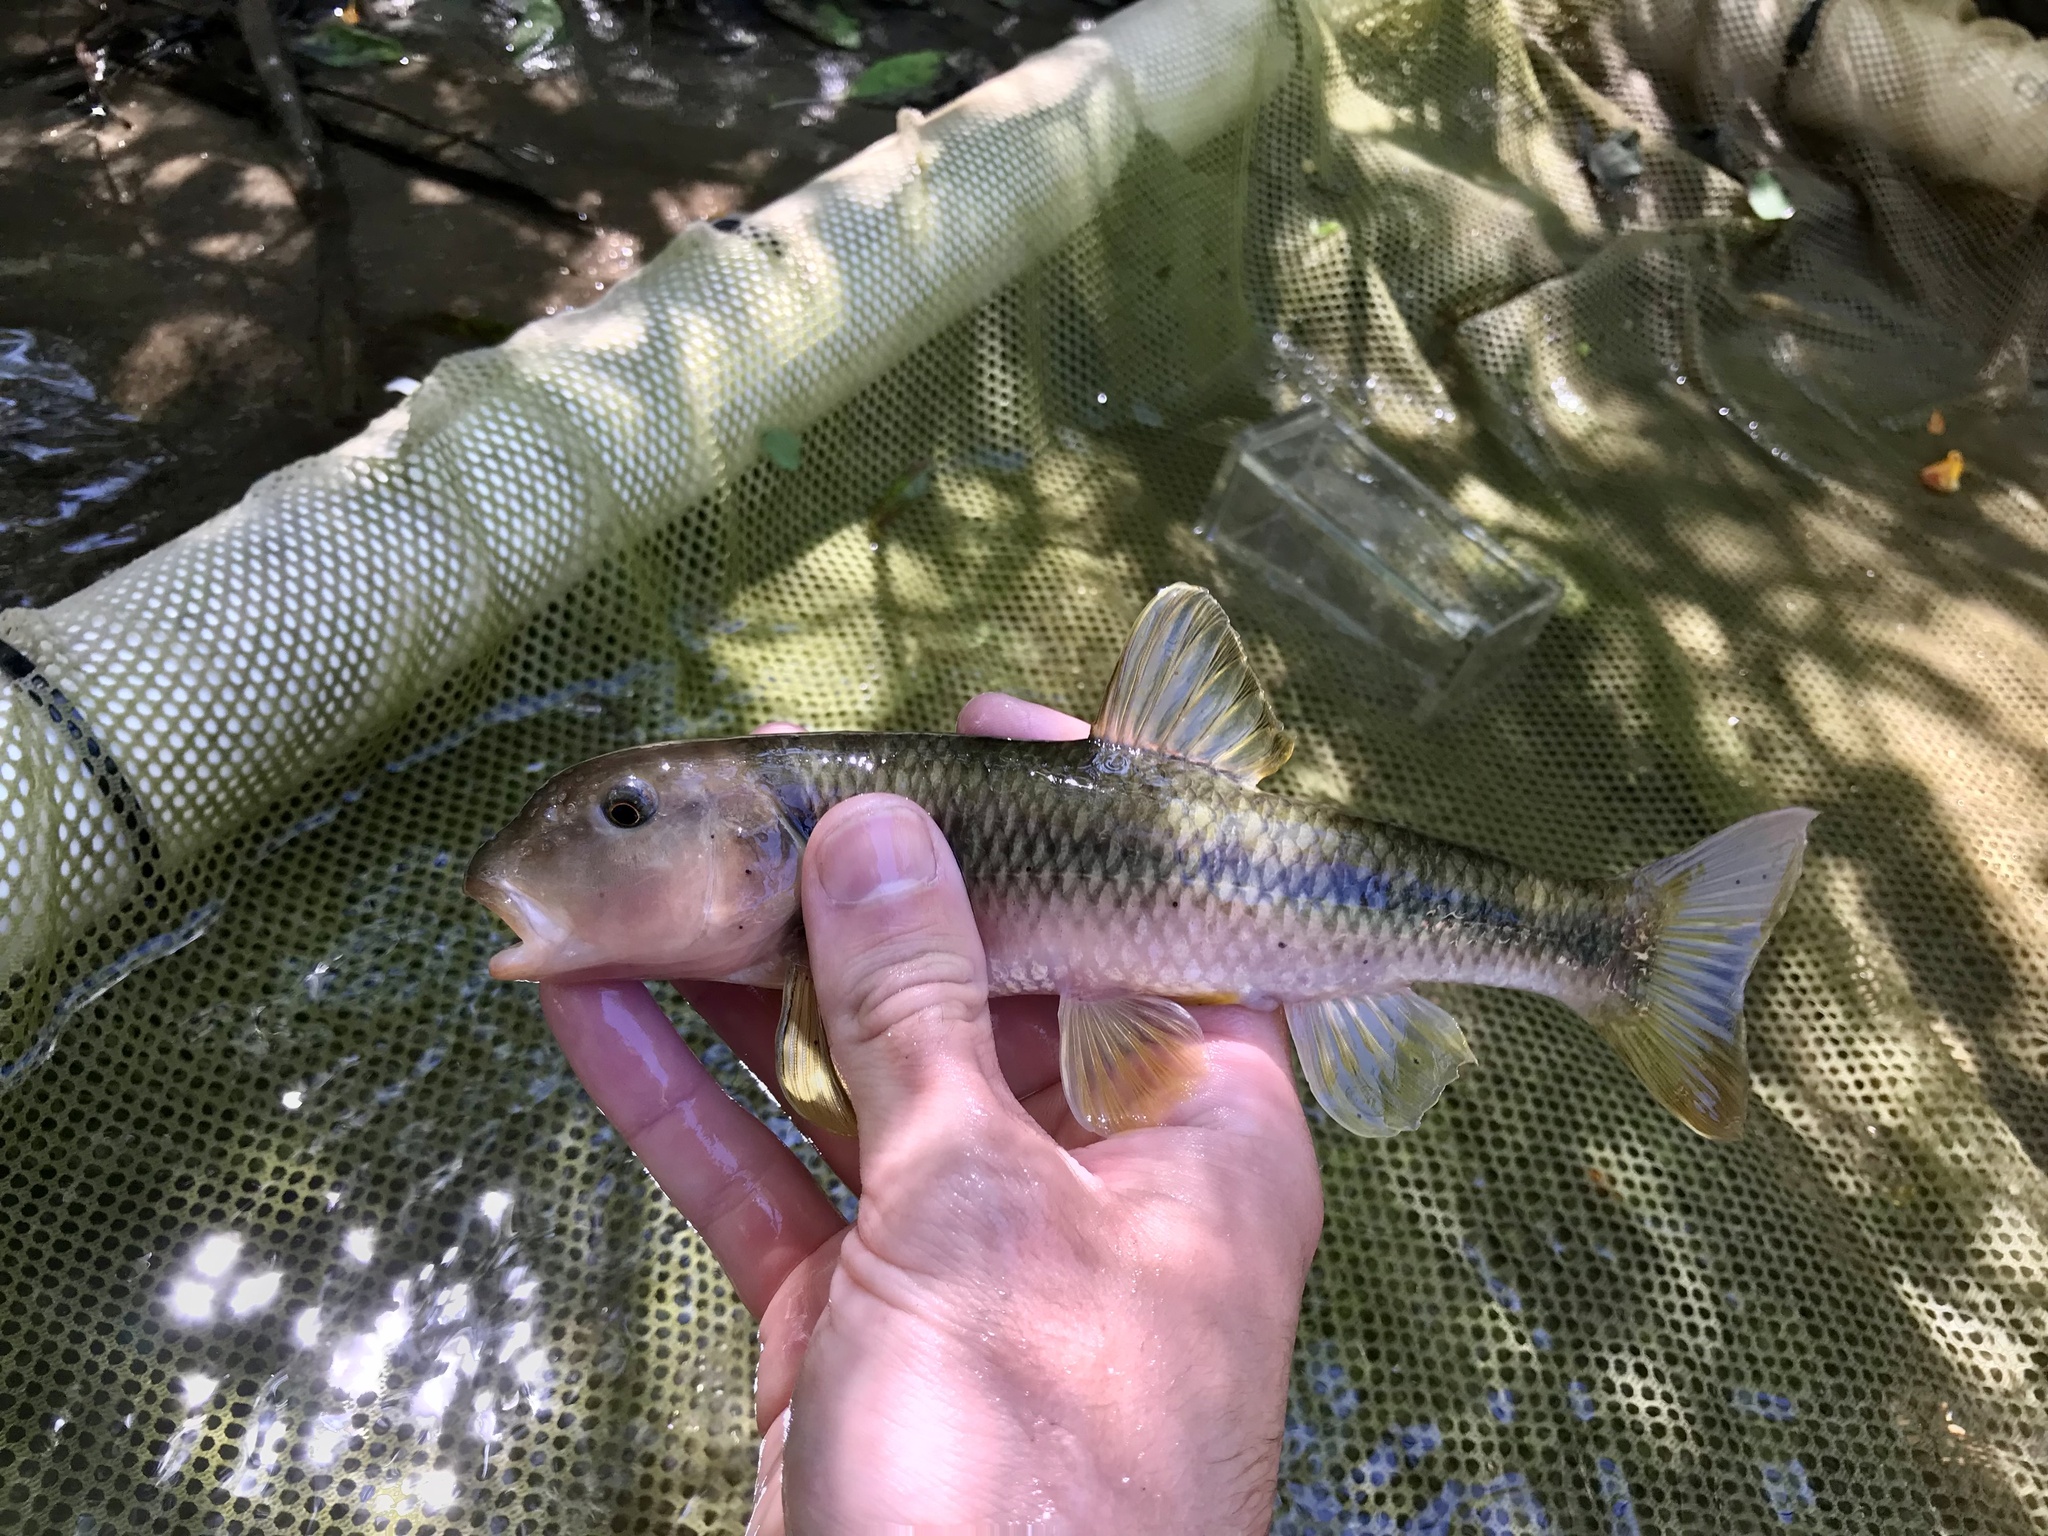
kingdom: Animalia
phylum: Chordata
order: Cypriniformes
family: Cyprinidae
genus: Nocomis
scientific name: Nocomis micropogon
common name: River chub
